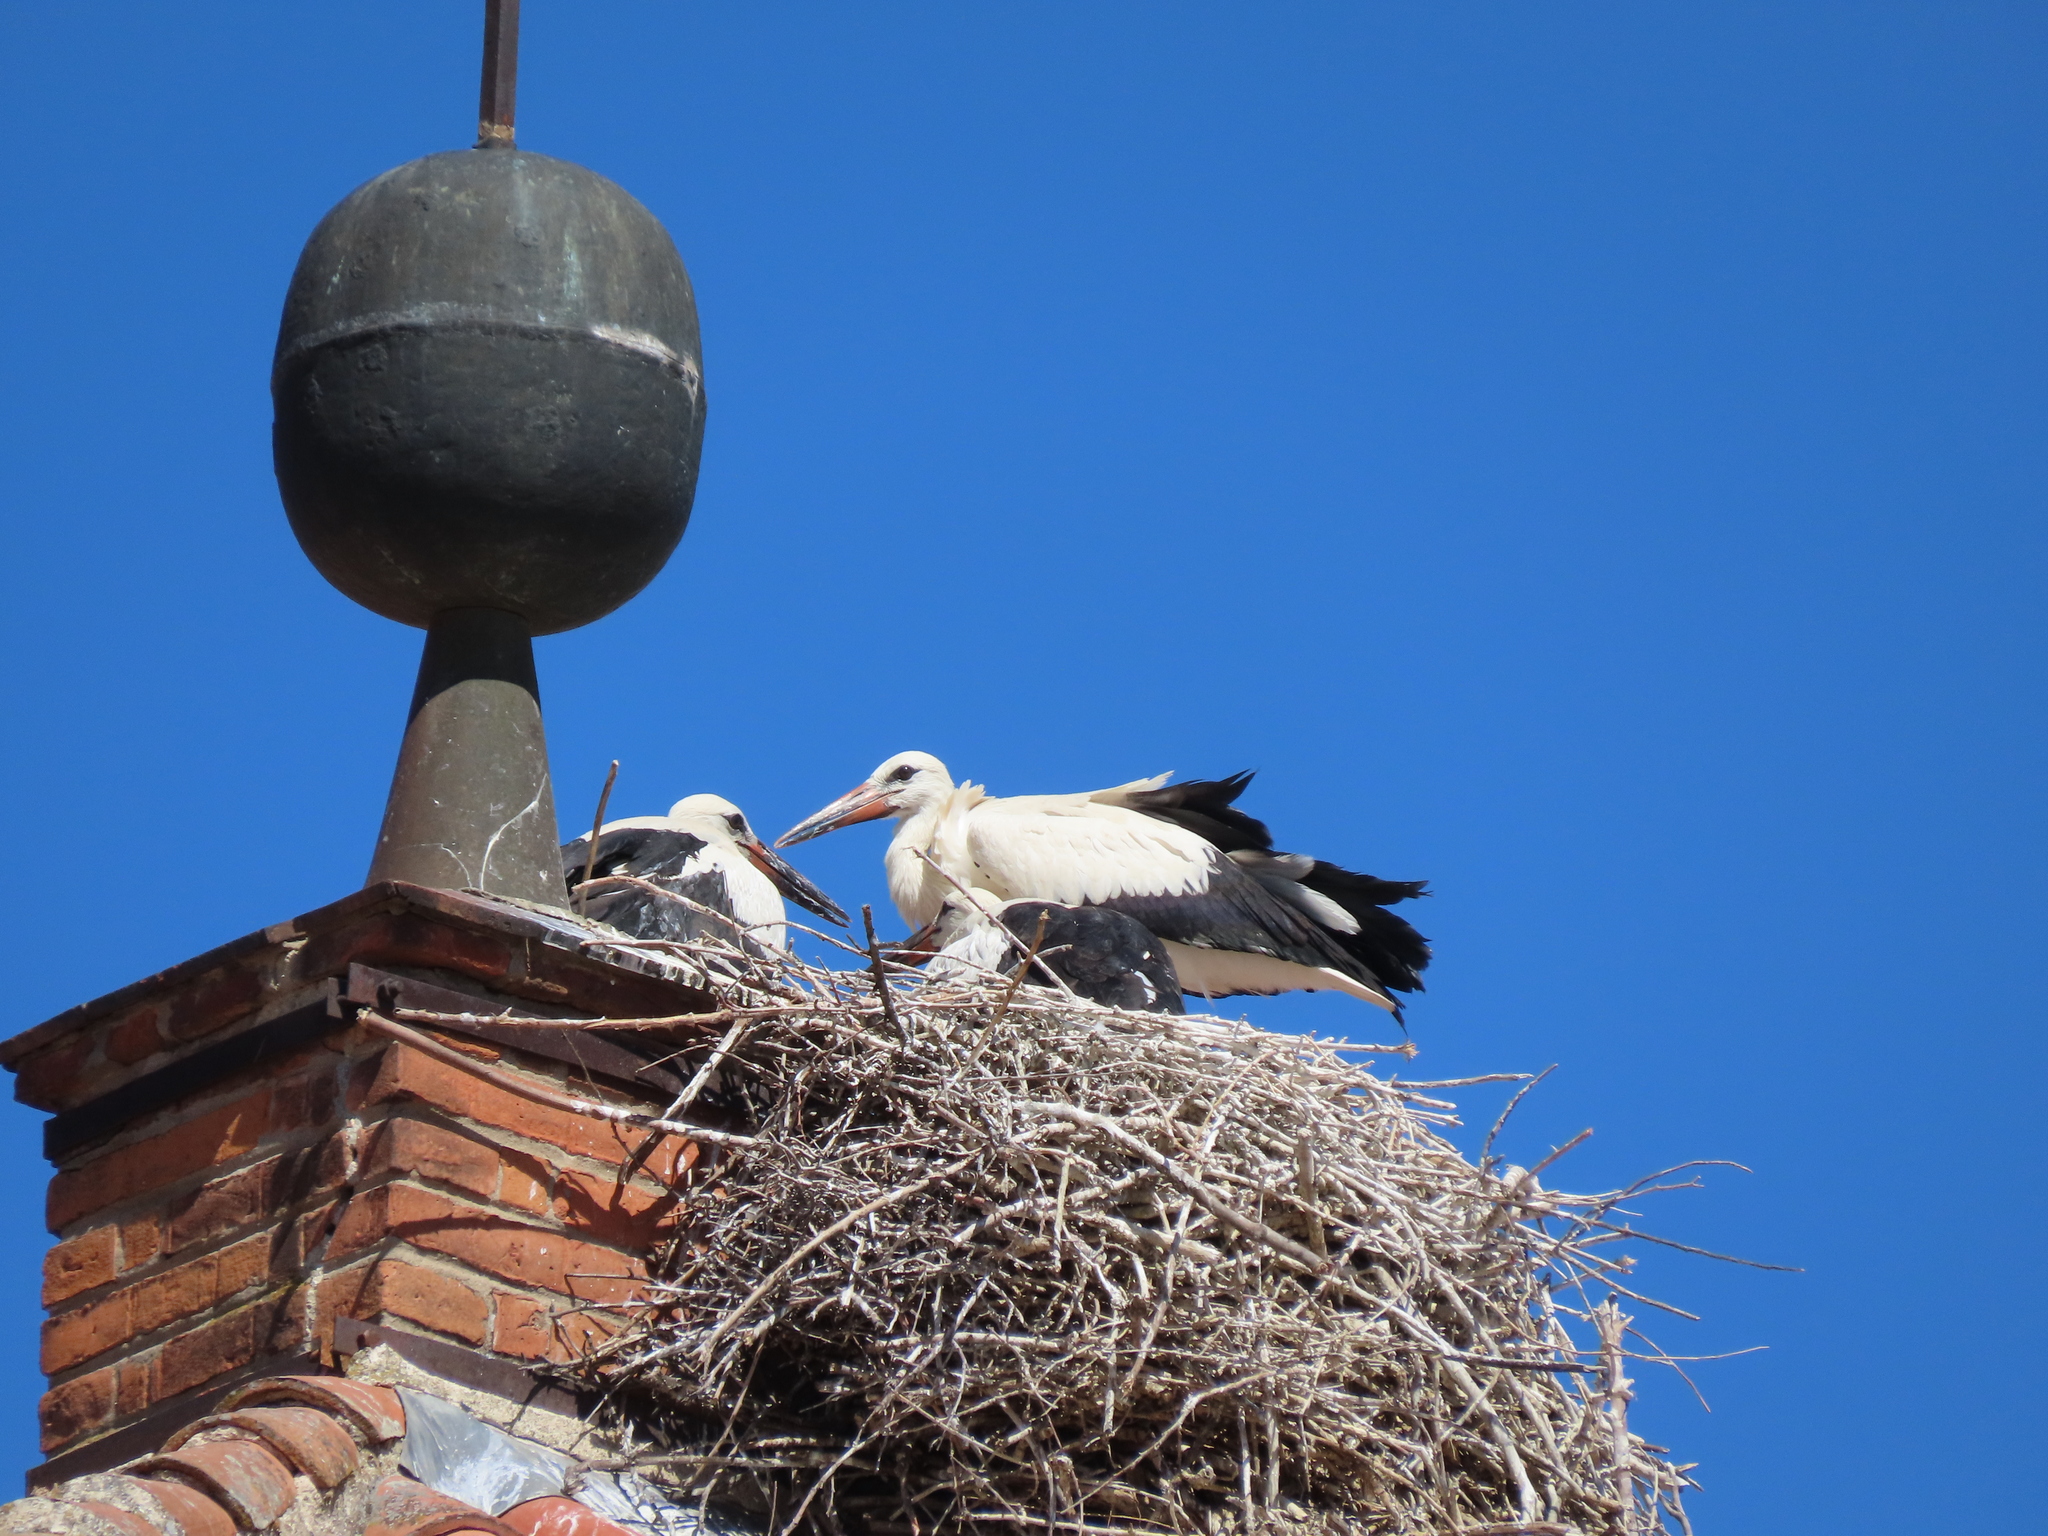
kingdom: Animalia
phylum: Chordata
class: Aves
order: Ciconiiformes
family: Ciconiidae
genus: Ciconia
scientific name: Ciconia ciconia
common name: White stork
